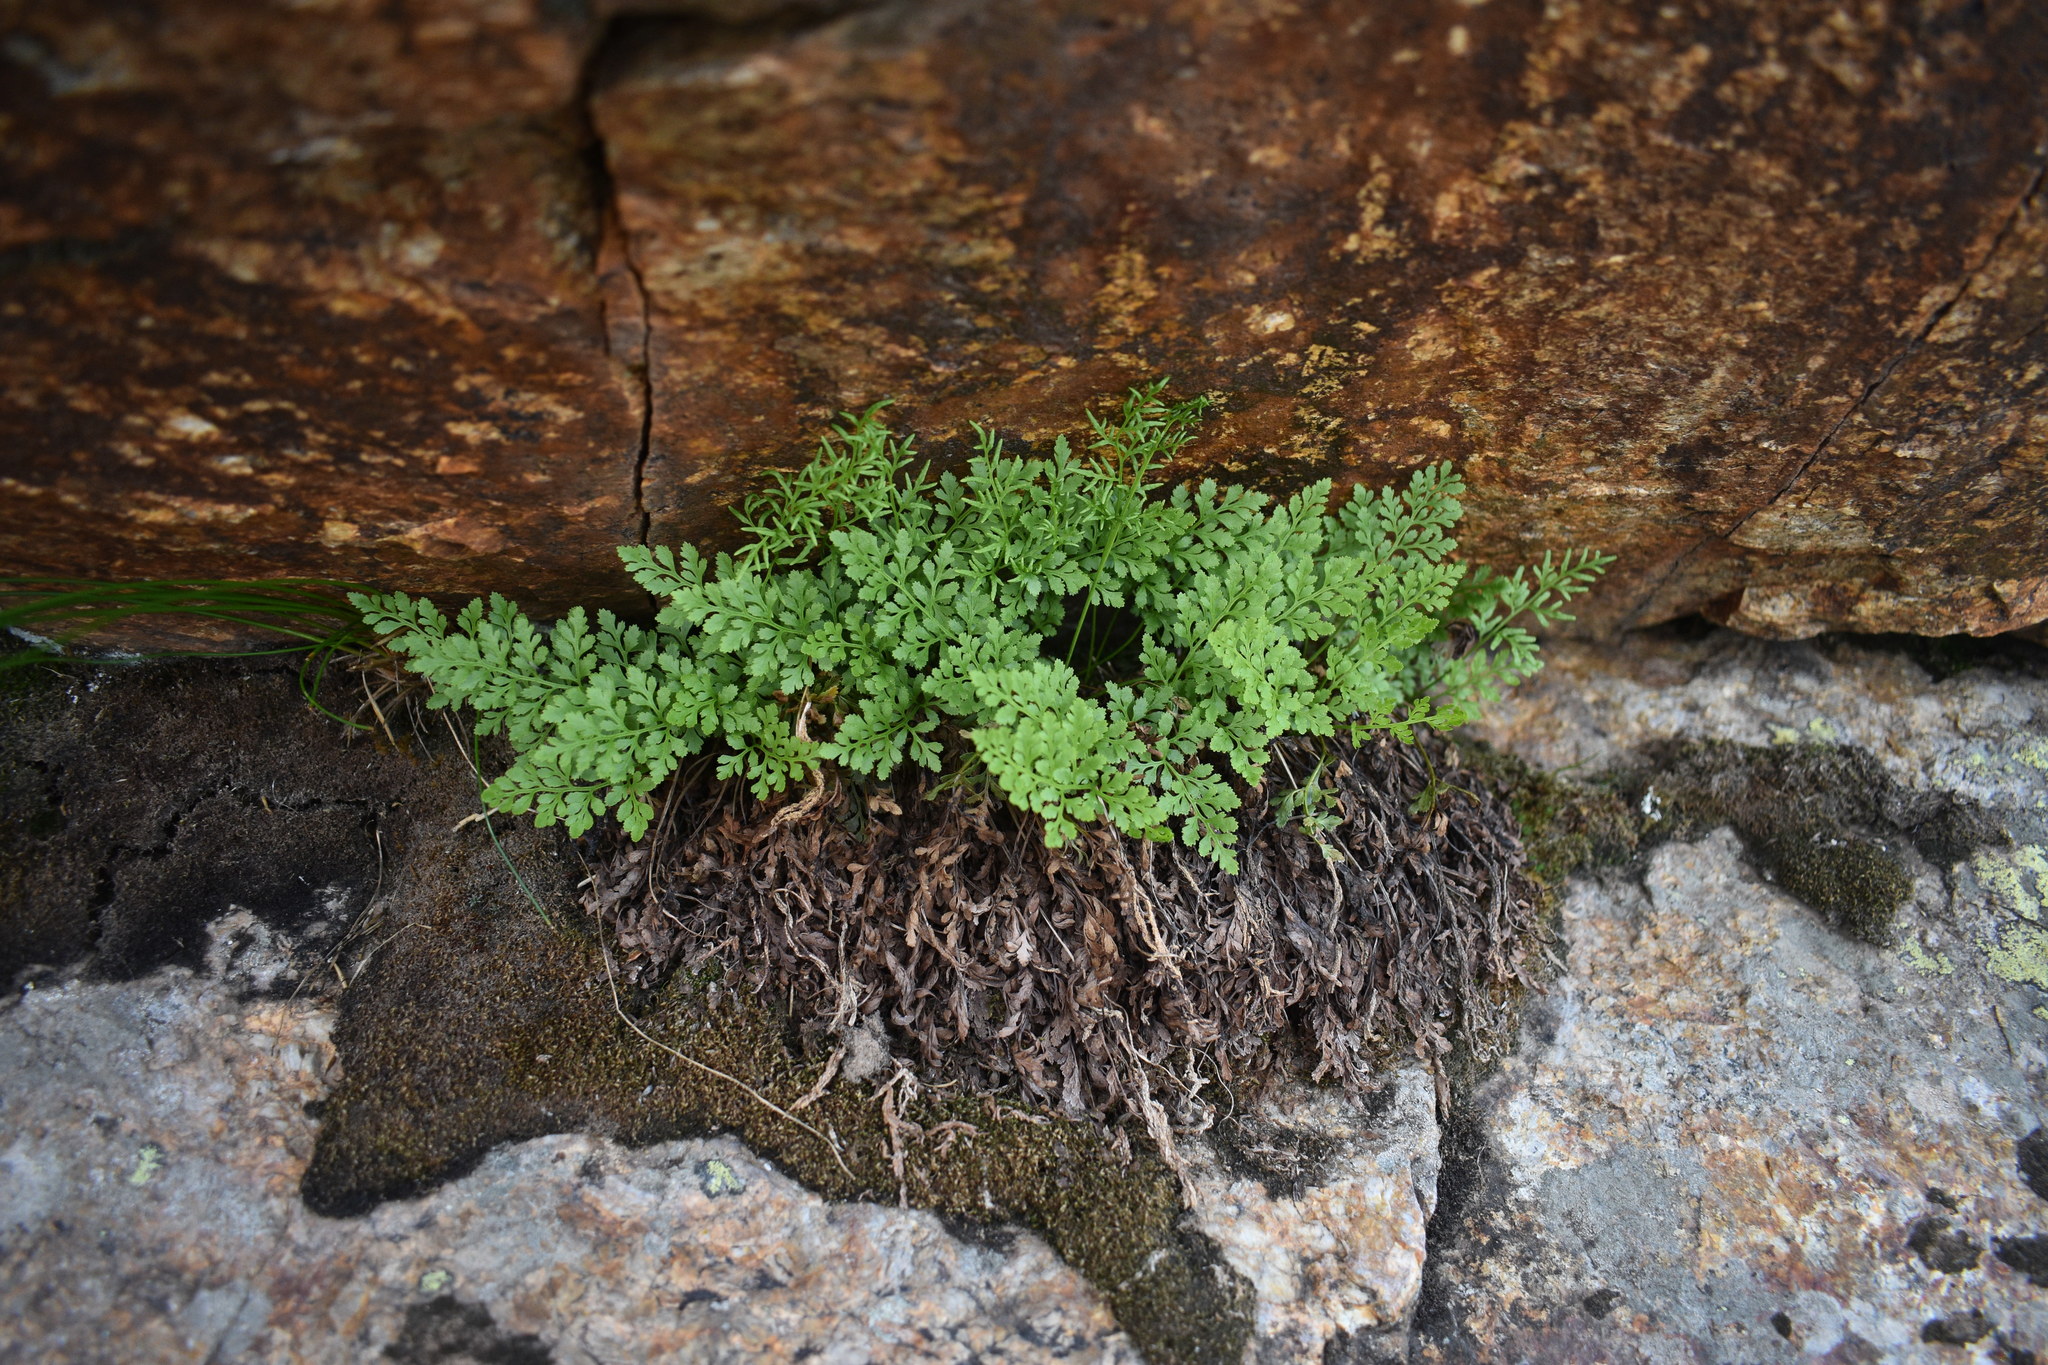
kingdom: Plantae
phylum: Tracheophyta
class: Polypodiopsida
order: Polypodiales
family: Pteridaceae
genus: Cryptogramma
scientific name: Cryptogramma acrostichoides
